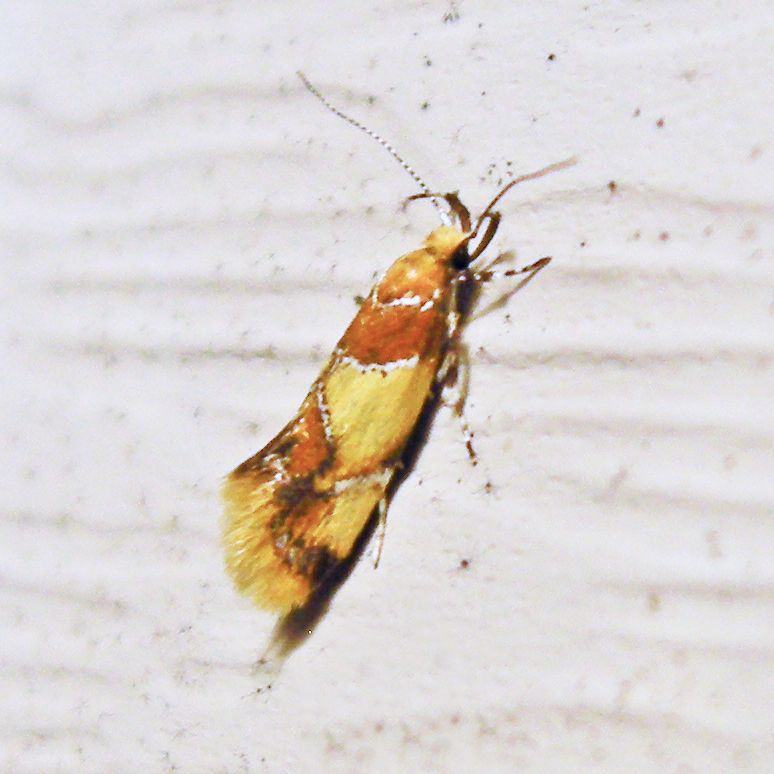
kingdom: Animalia
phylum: Arthropoda
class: Insecta
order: Lepidoptera
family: Oecophoridae
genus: Callima
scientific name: Callima argenticinctella
